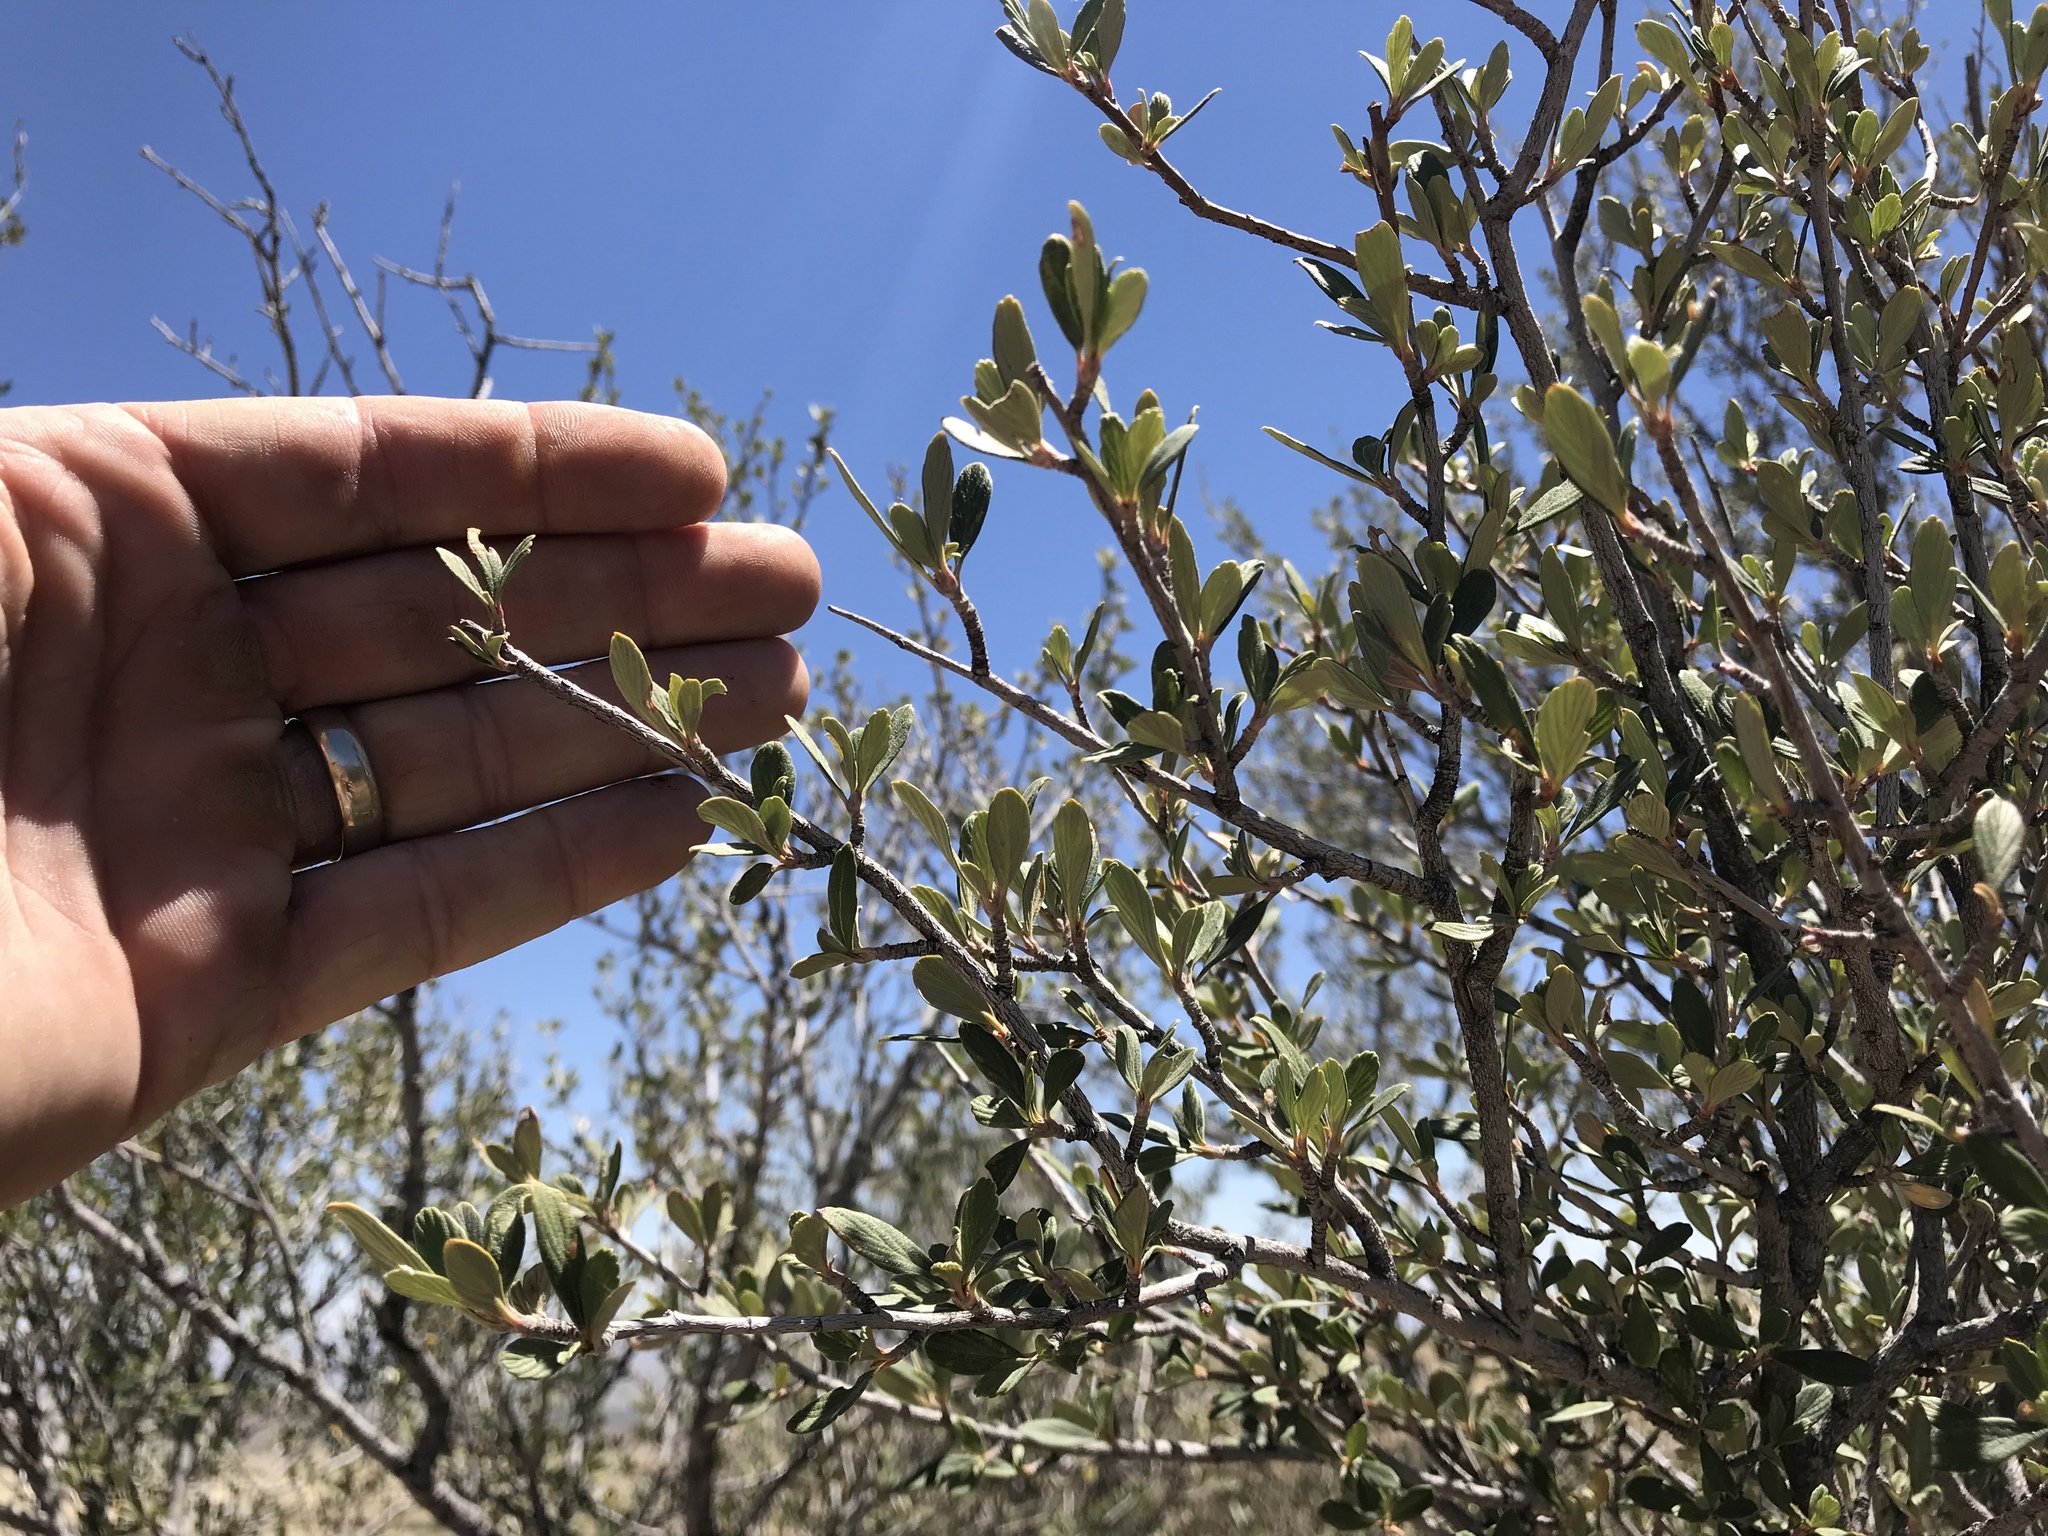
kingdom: Plantae
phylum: Tracheophyta
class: Magnoliopsida
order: Rosales
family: Rosaceae
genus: Cercocarpus
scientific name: Cercocarpus breviflorus
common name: Wright's mountain-mahogany
